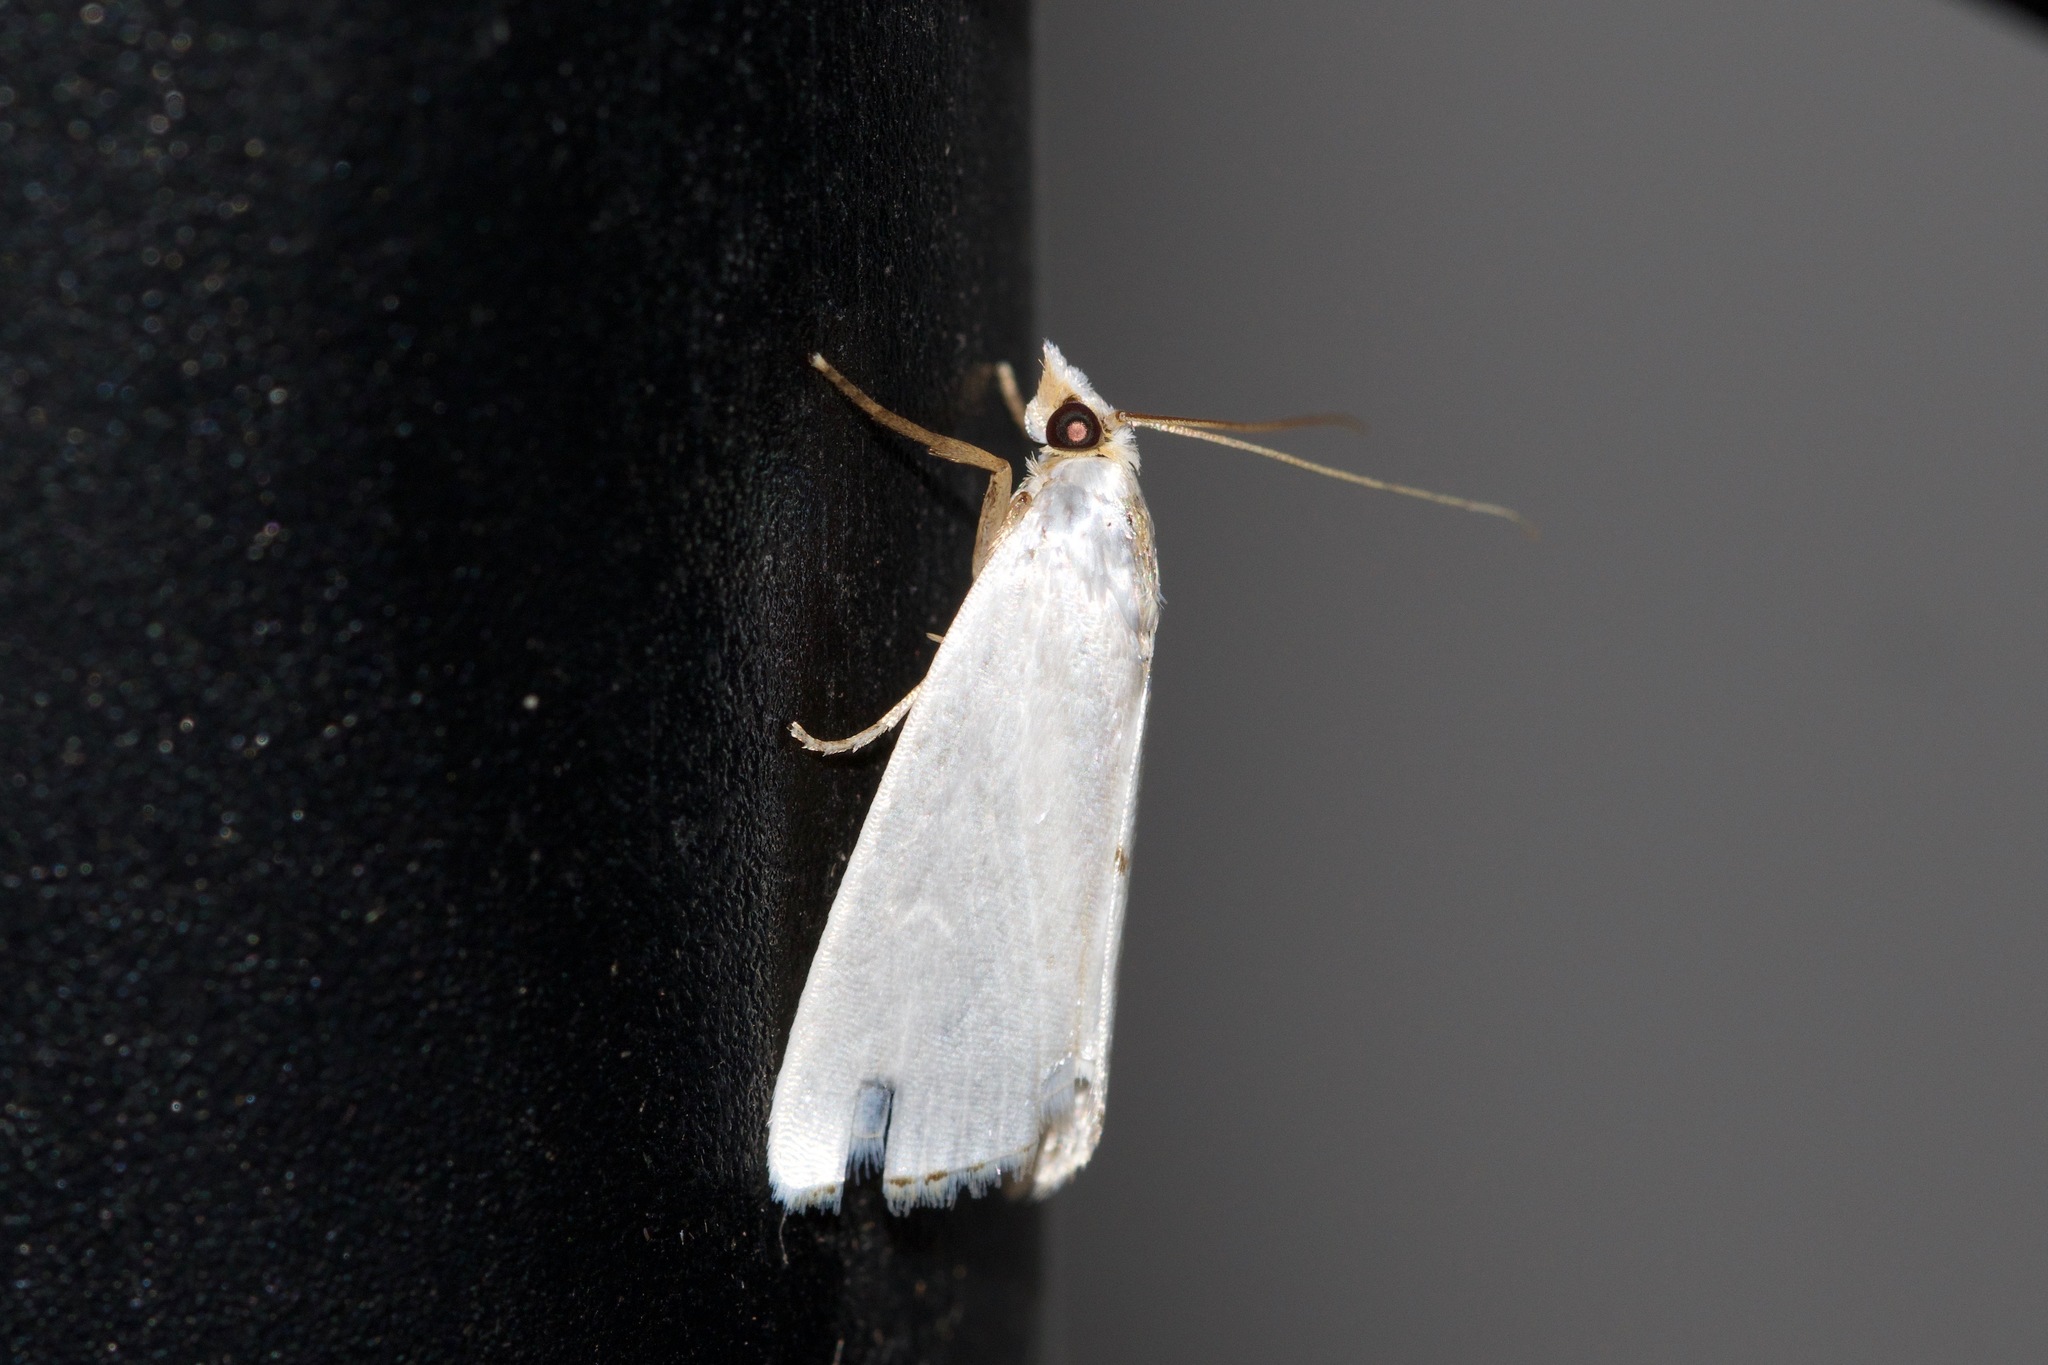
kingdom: Animalia
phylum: Arthropoda
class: Insecta
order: Lepidoptera
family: Crambidae
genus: Argyria
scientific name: Argyria nivalis
